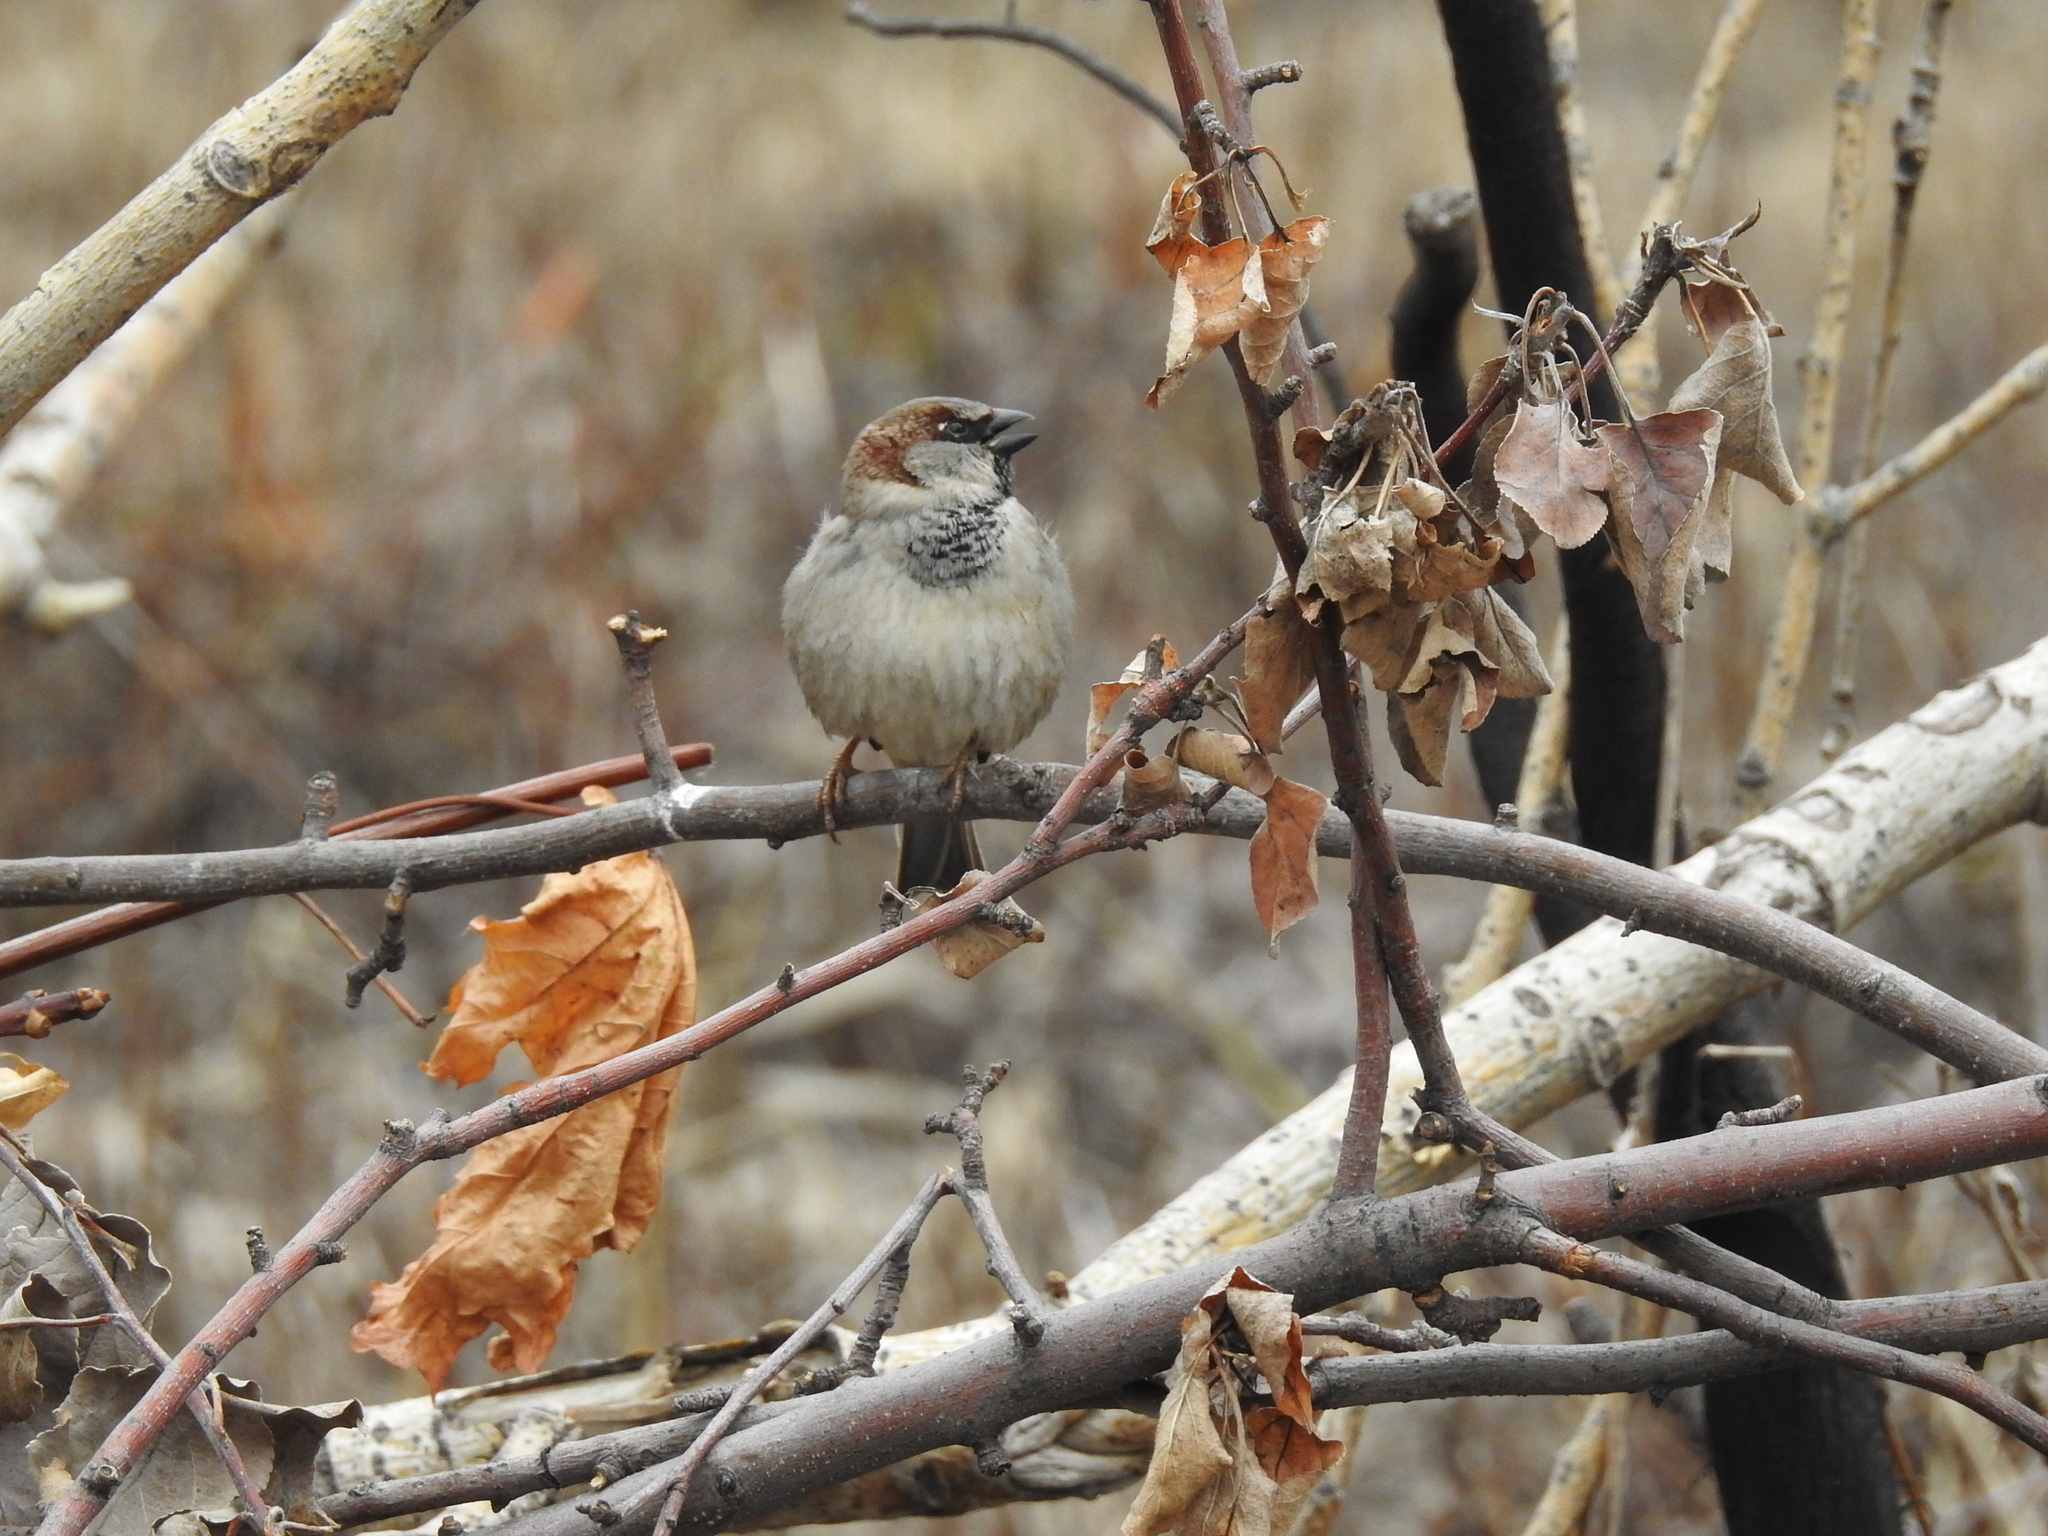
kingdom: Animalia
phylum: Chordata
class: Aves
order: Passeriformes
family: Passeridae
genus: Passer
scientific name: Passer domesticus
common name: House sparrow
